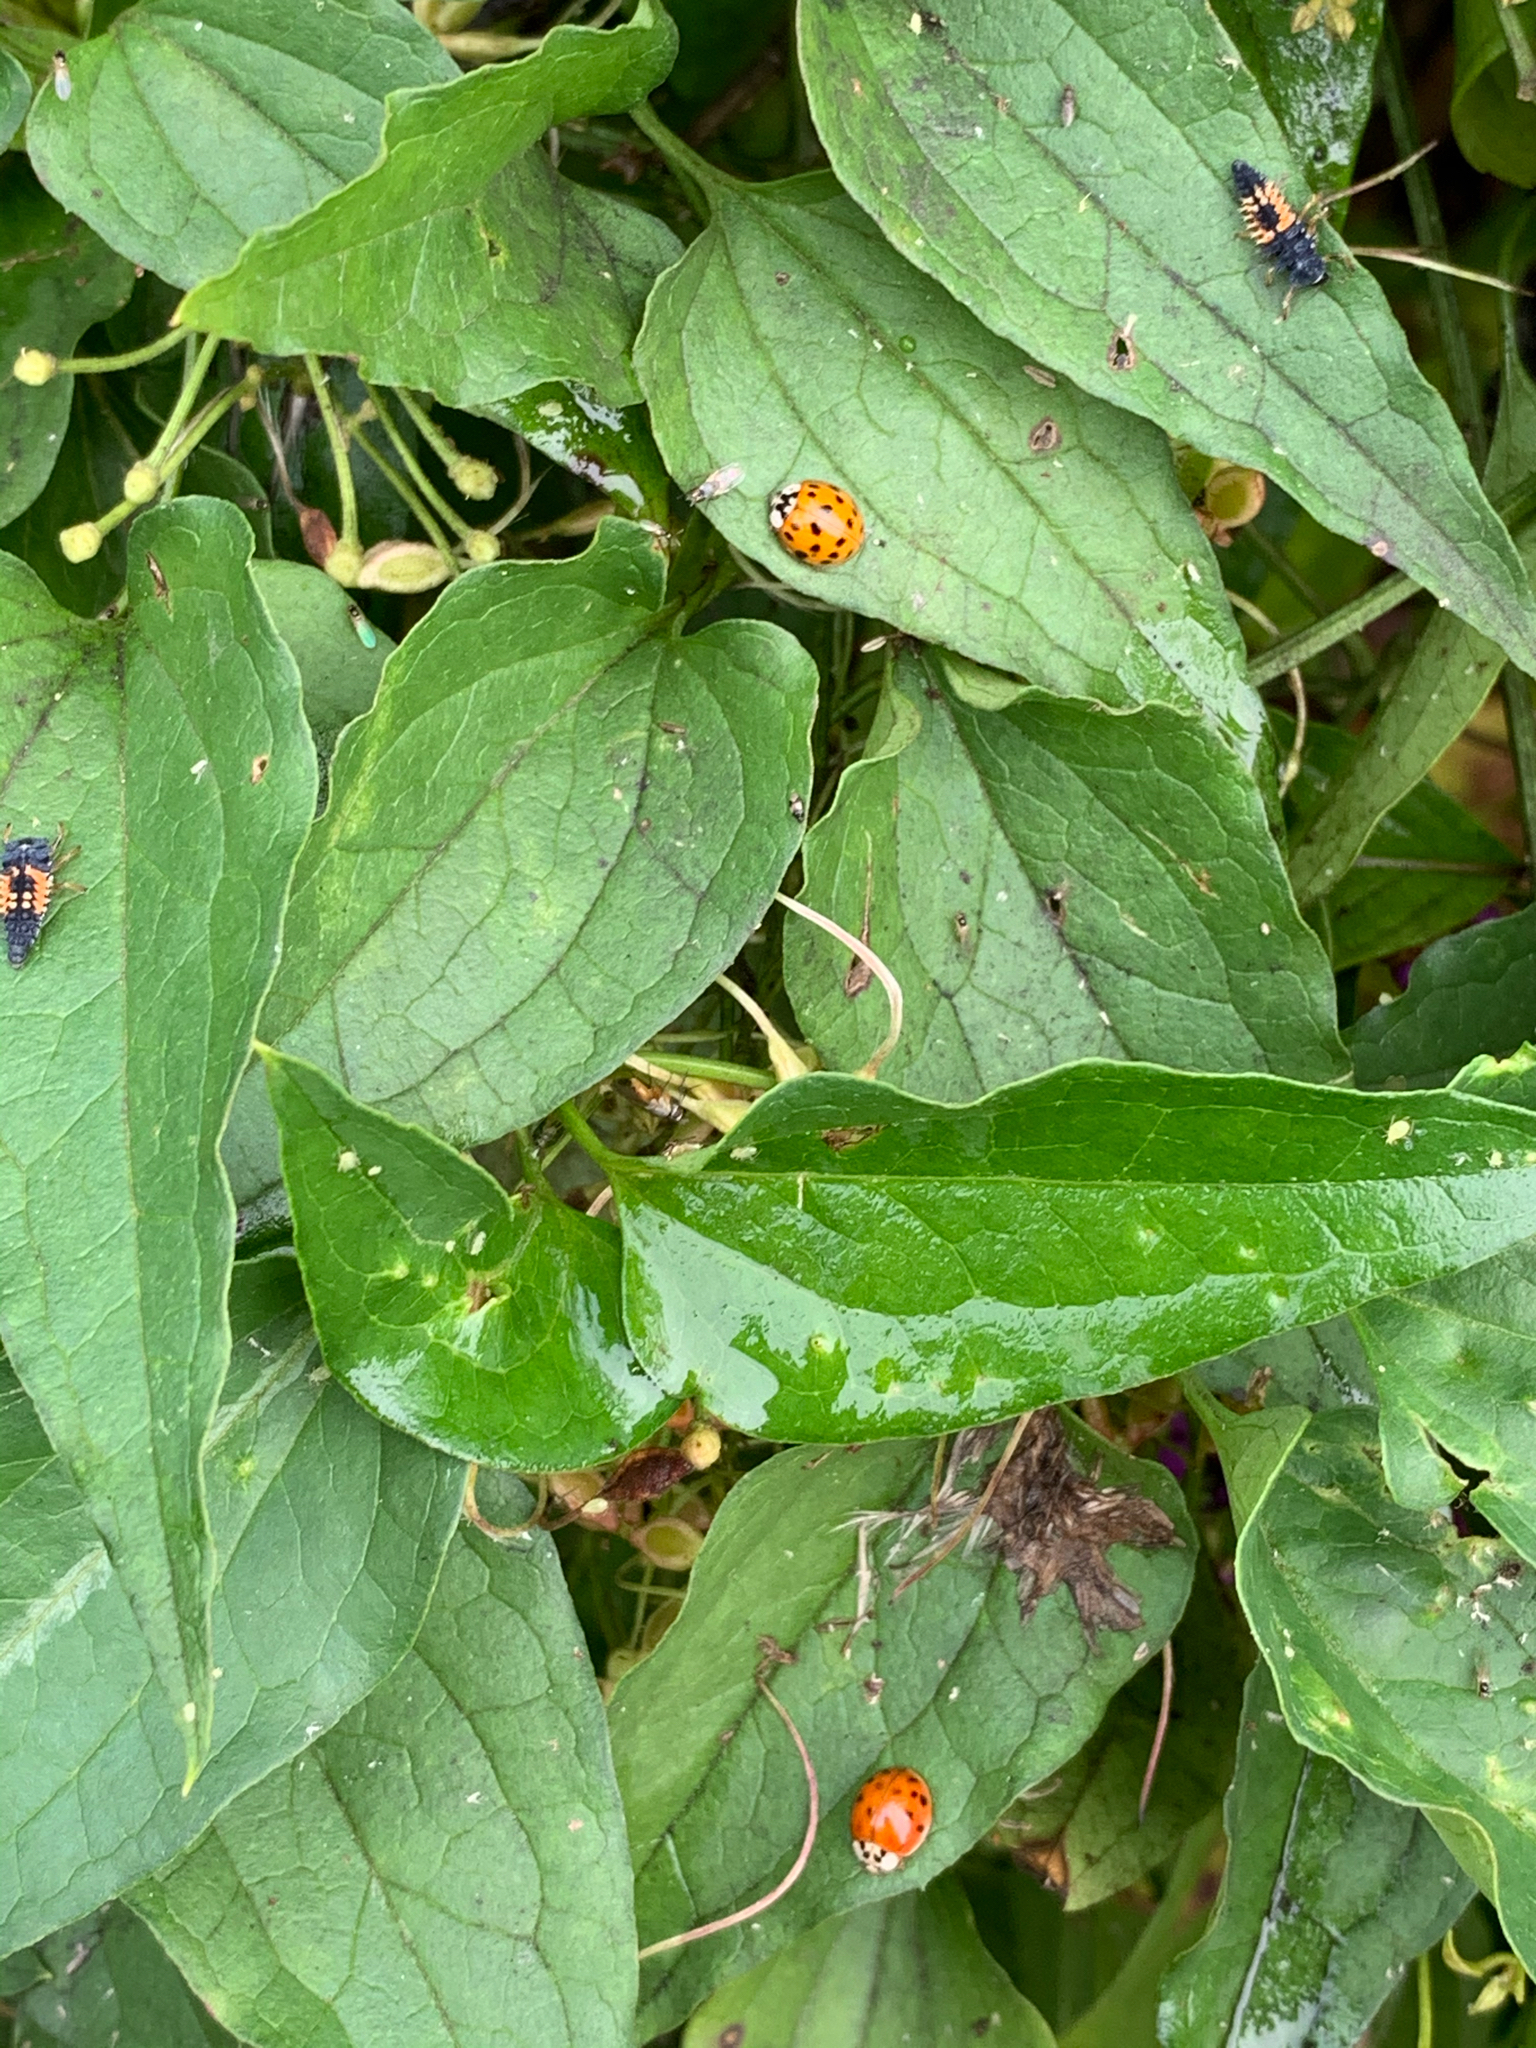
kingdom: Animalia
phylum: Arthropoda
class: Insecta
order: Coleoptera
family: Coccinellidae
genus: Harmonia
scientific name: Harmonia axyridis
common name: Harlequin ladybird
